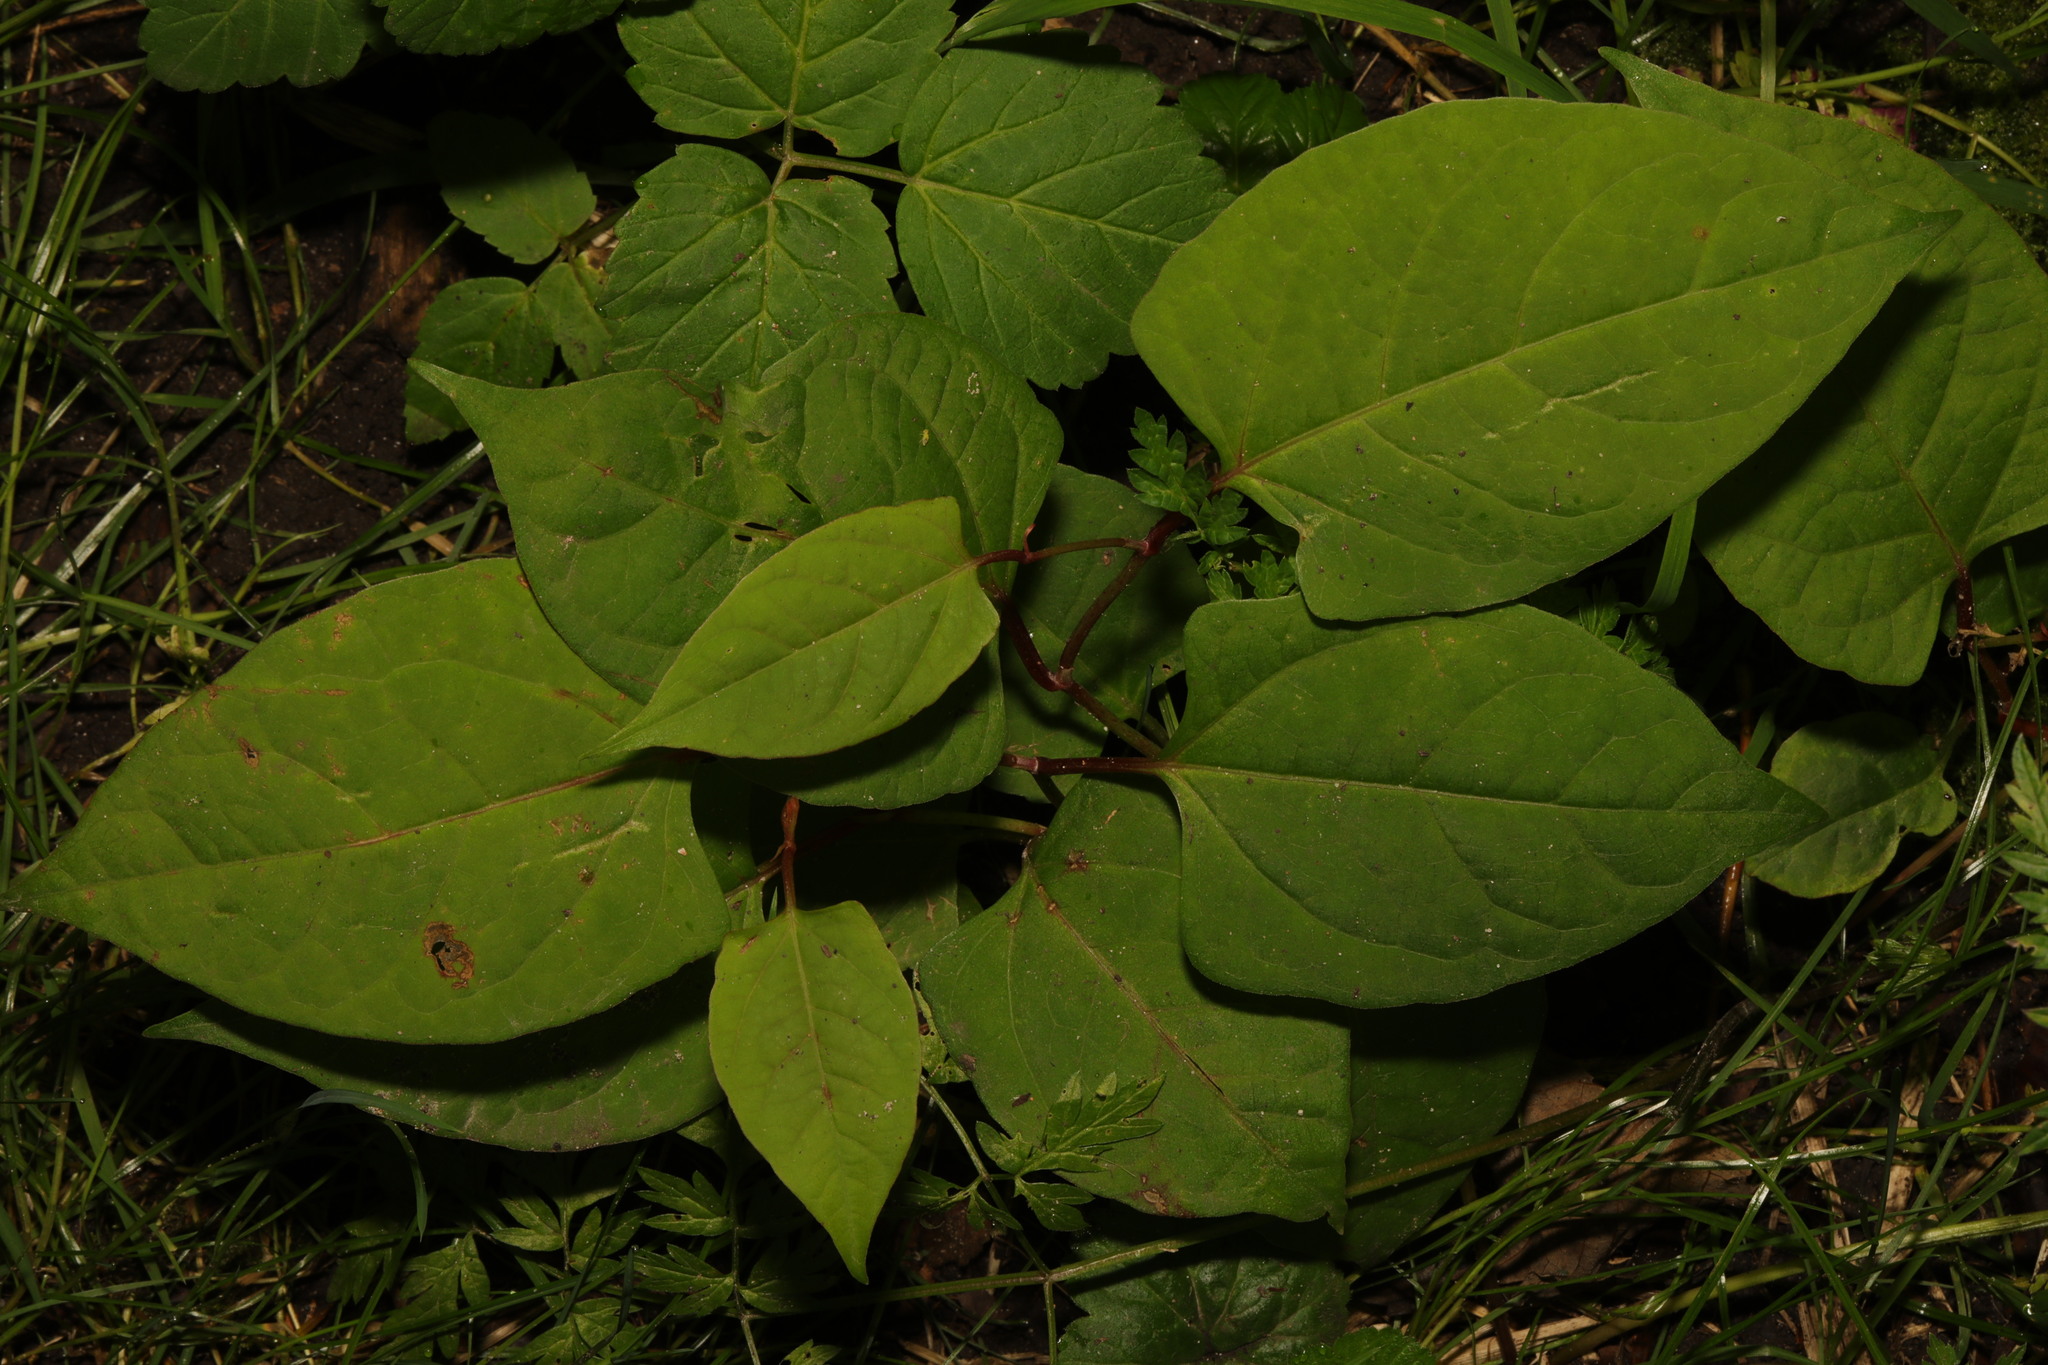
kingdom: Plantae
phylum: Tracheophyta
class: Magnoliopsida
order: Caryophyllales
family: Polygonaceae
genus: Reynoutria
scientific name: Reynoutria japonica
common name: Japanese knotweed
